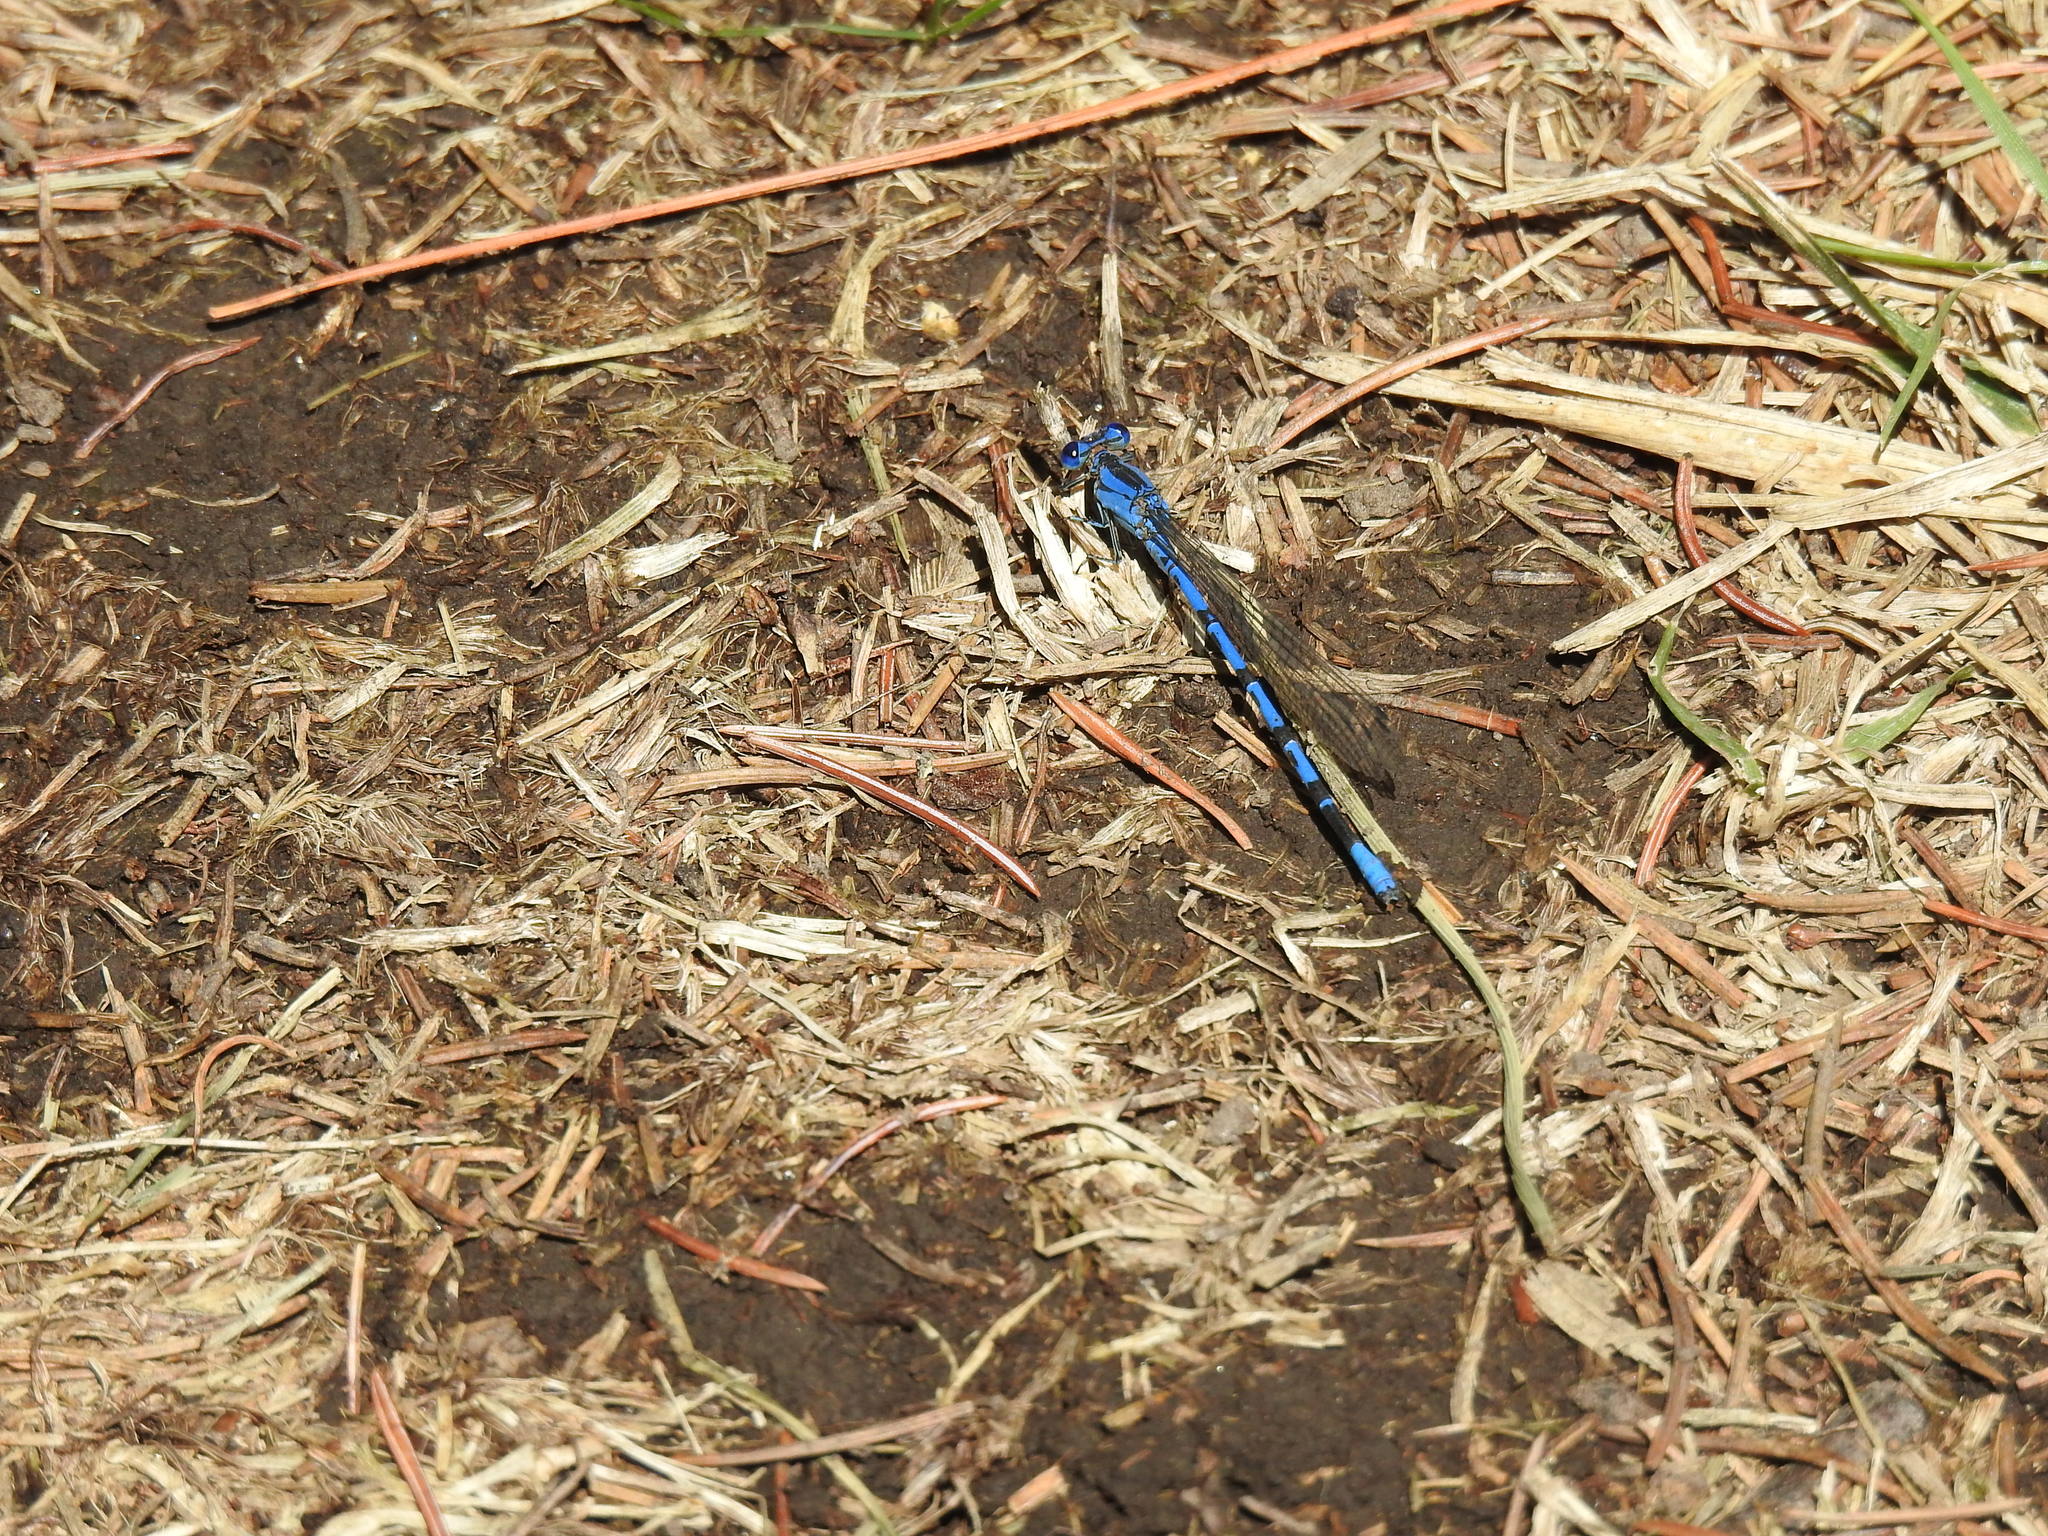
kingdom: Animalia
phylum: Arthropoda
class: Insecta
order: Odonata
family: Coenagrionidae
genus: Argia
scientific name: Argia vivida
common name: Vivid dancer
